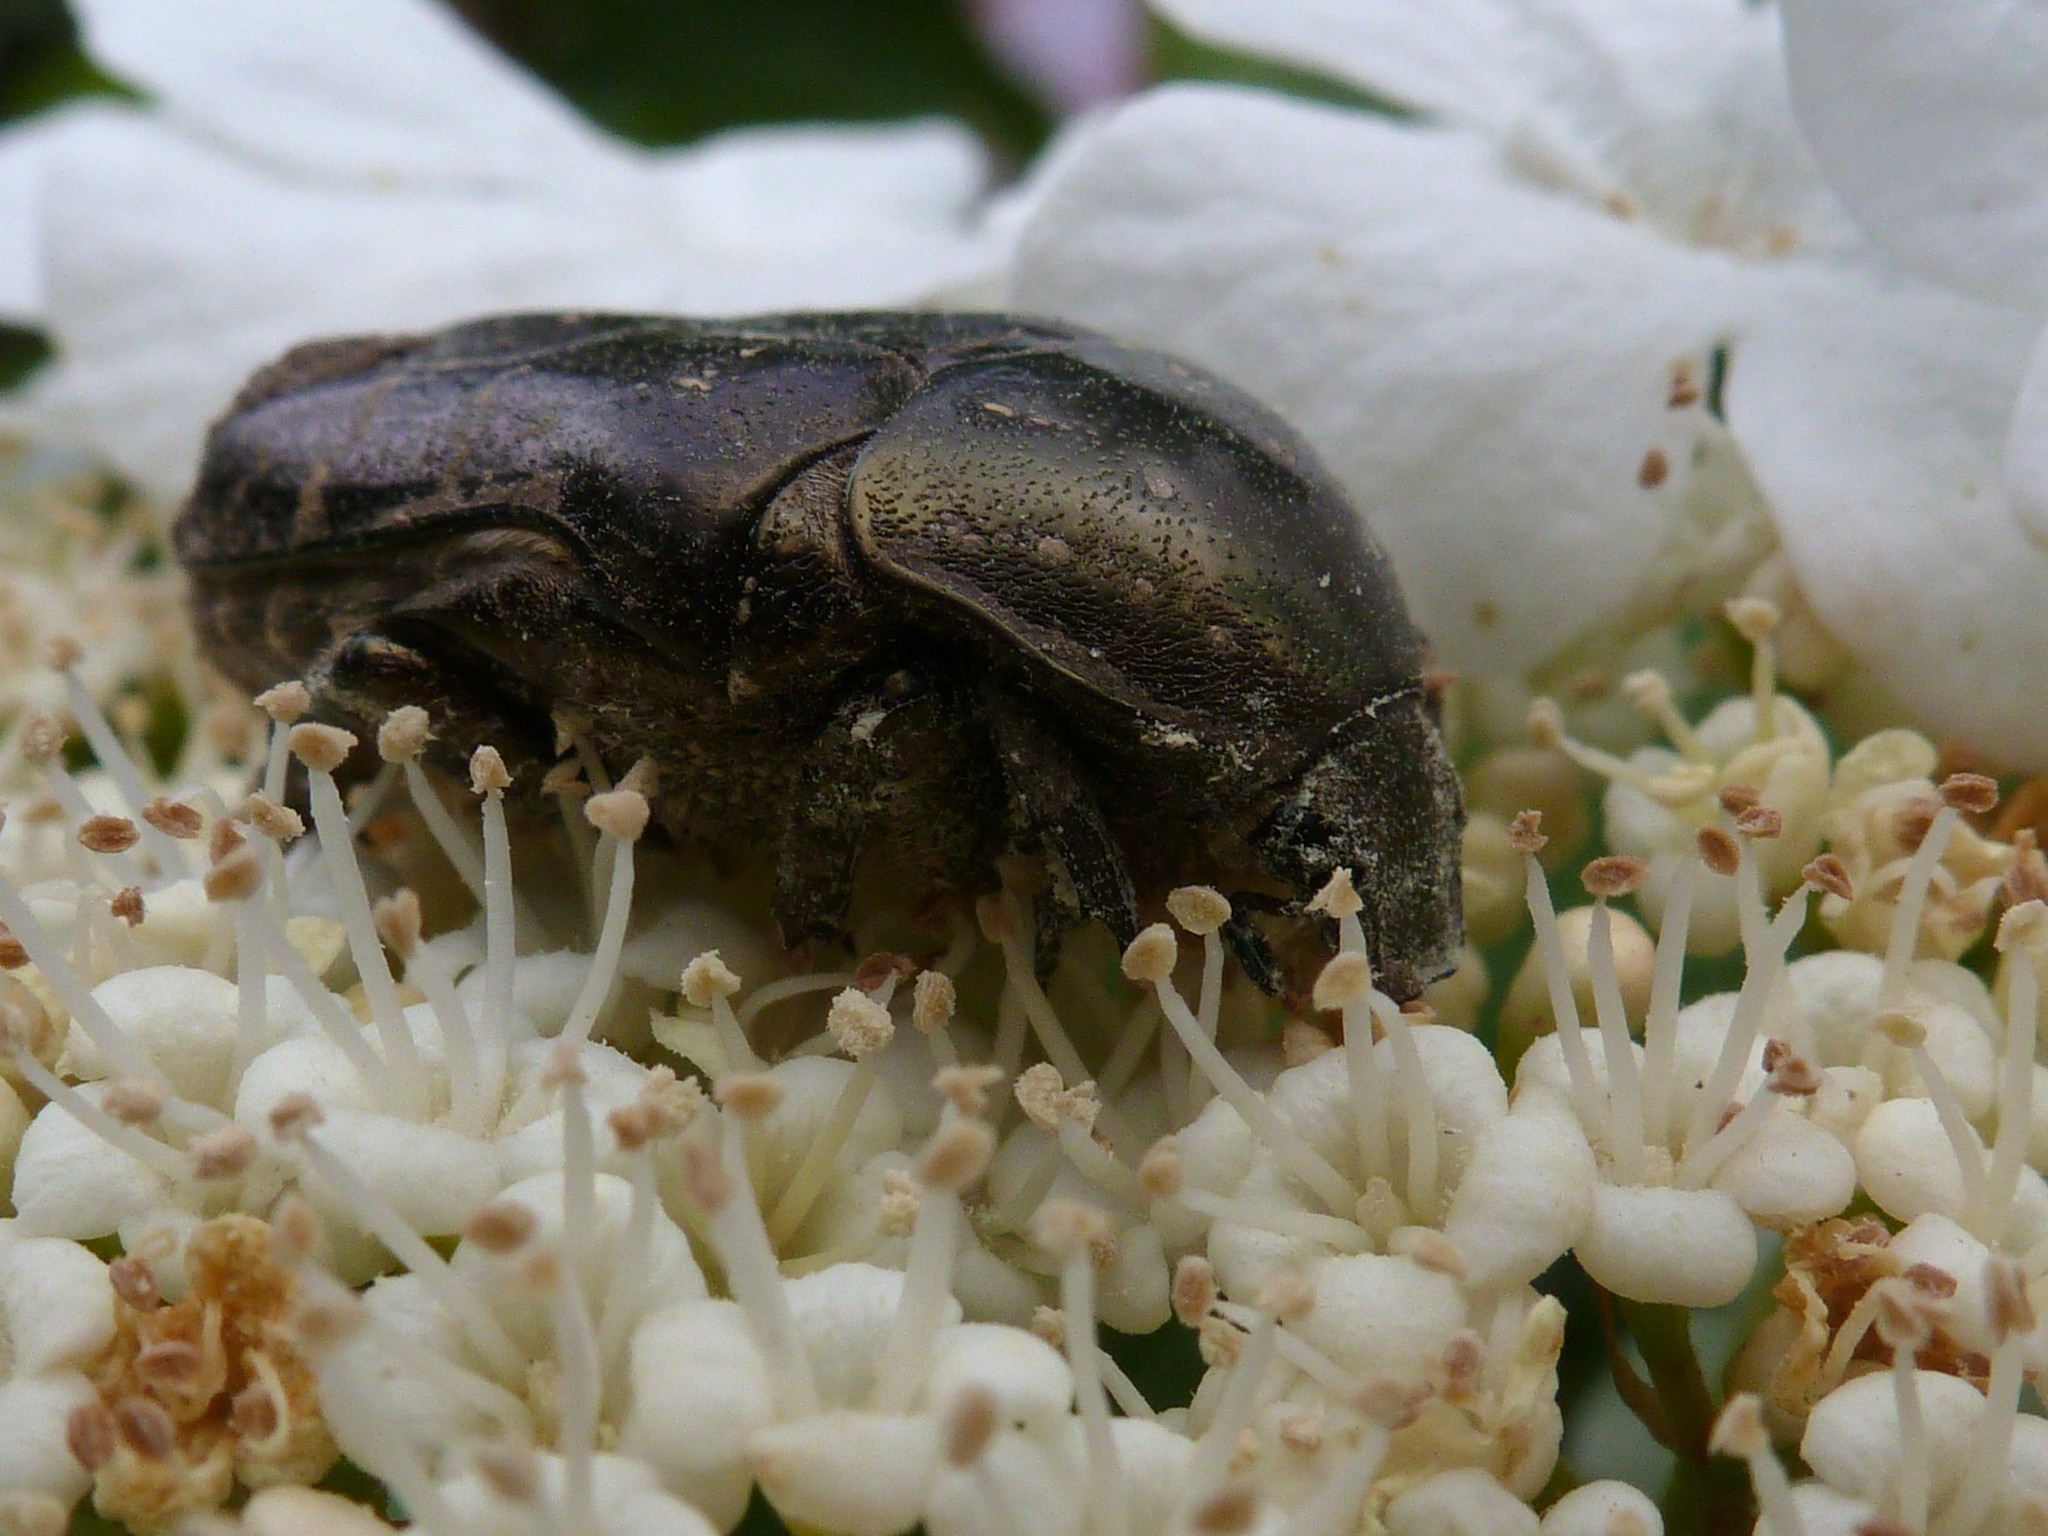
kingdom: Animalia
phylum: Arthropoda
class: Insecta
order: Coleoptera
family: Scarabaeidae
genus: Protaetia
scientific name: Protaetia cuprea
